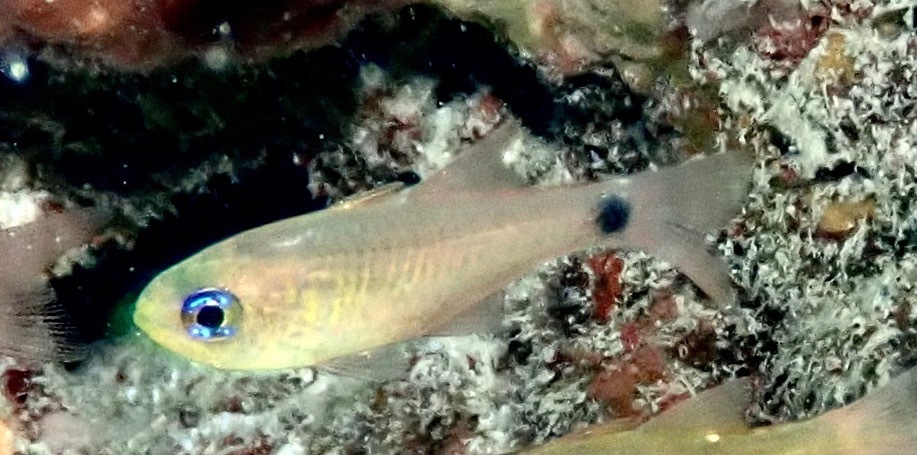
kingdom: Animalia
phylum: Chordata
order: Perciformes
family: Apogonidae
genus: Taeniamia
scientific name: Taeniamia fucata
